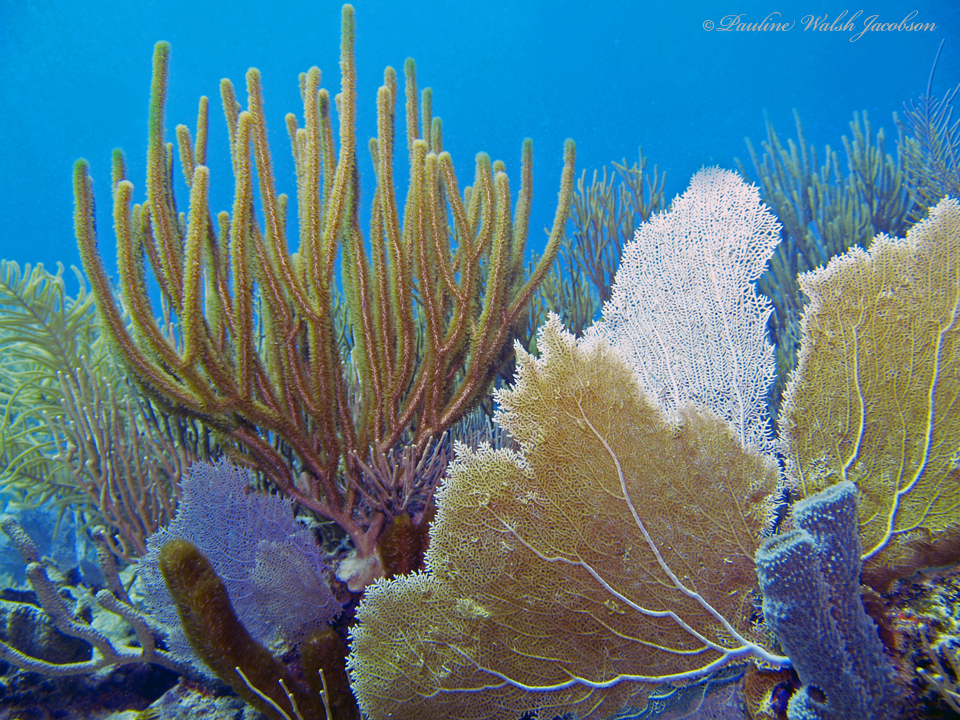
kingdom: Animalia
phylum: Cnidaria
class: Anthozoa
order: Malacalcyonacea
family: Gorgoniidae
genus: Gorgonia
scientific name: Gorgonia ventalina
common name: Common sea fan
